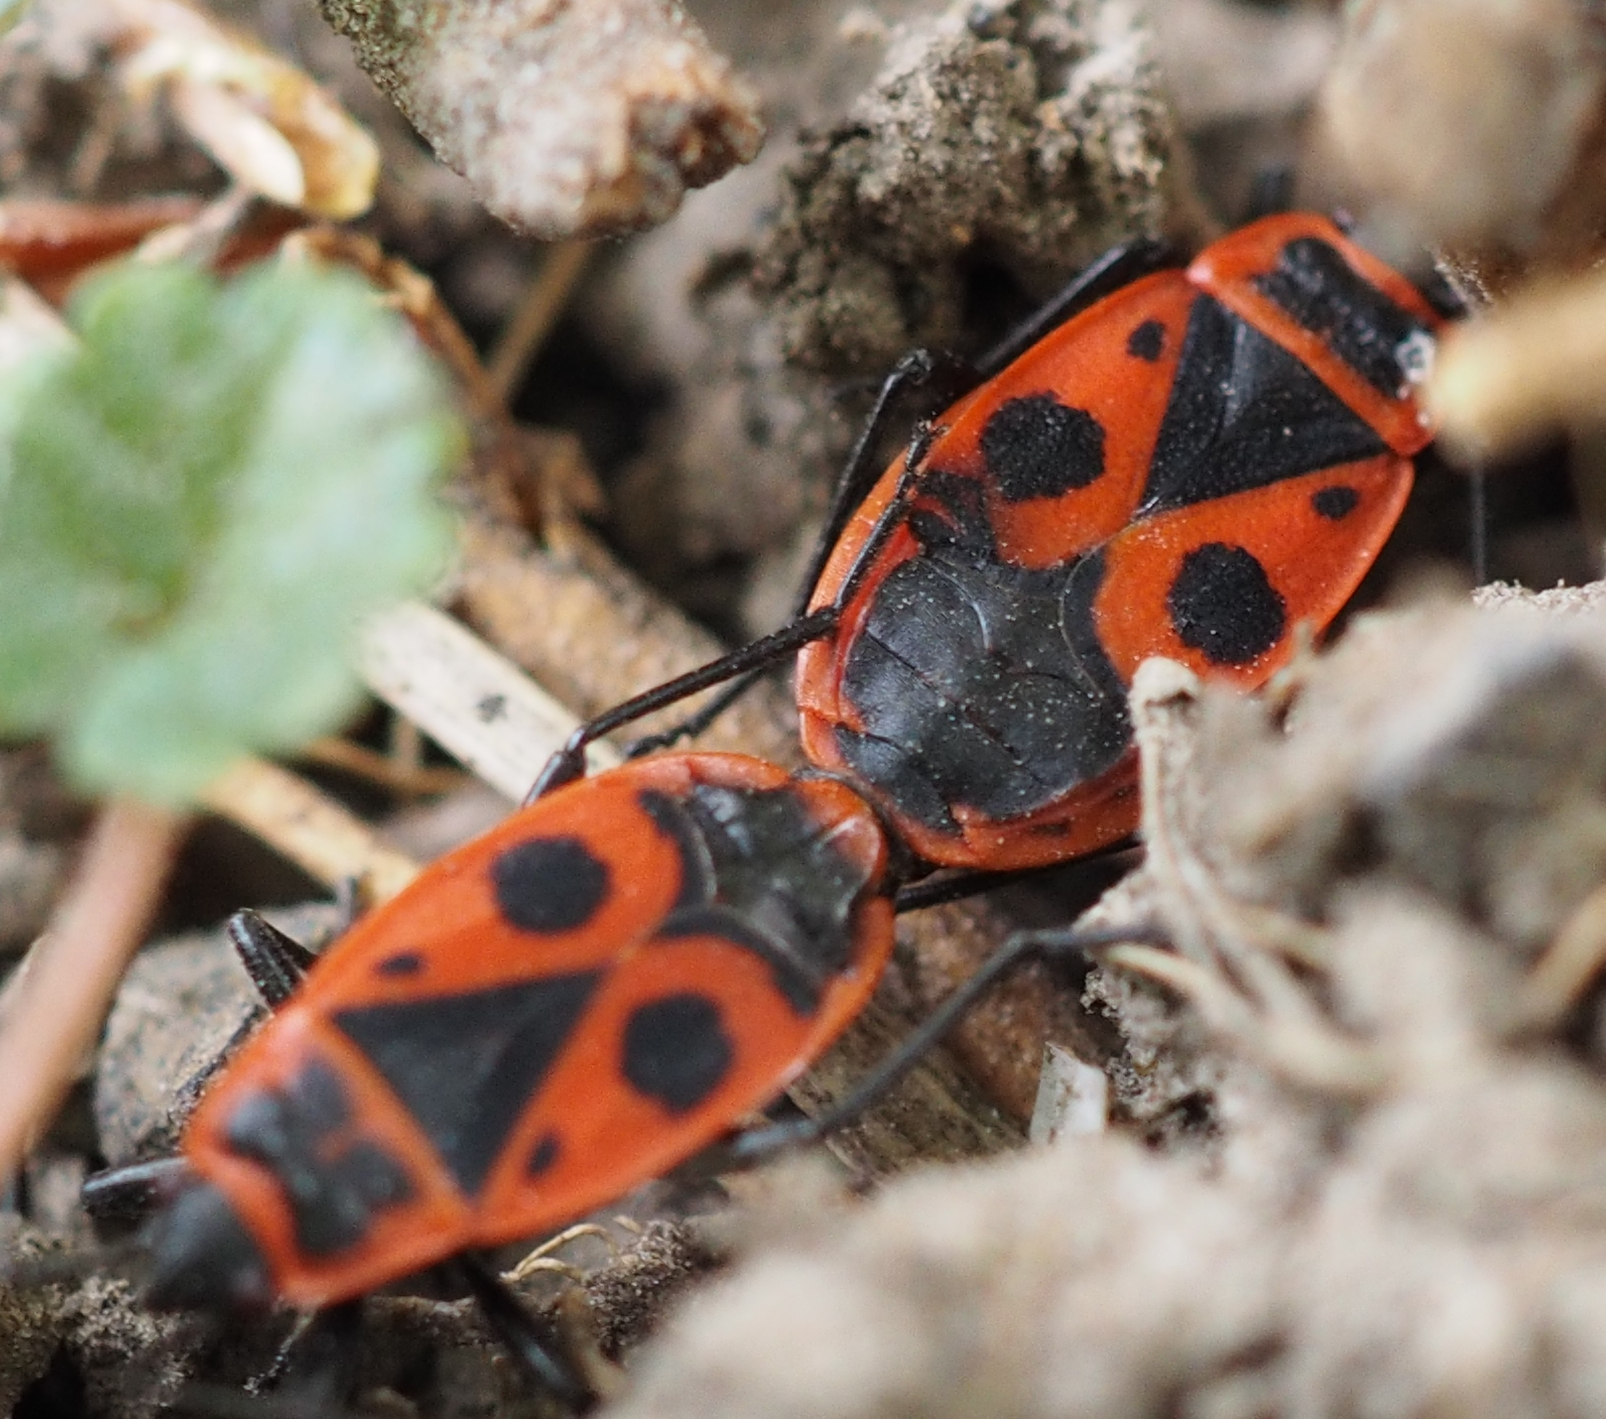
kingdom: Animalia
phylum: Arthropoda
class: Insecta
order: Hemiptera
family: Pyrrhocoridae
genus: Pyrrhocoris
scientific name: Pyrrhocoris apterus
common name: Firebug
